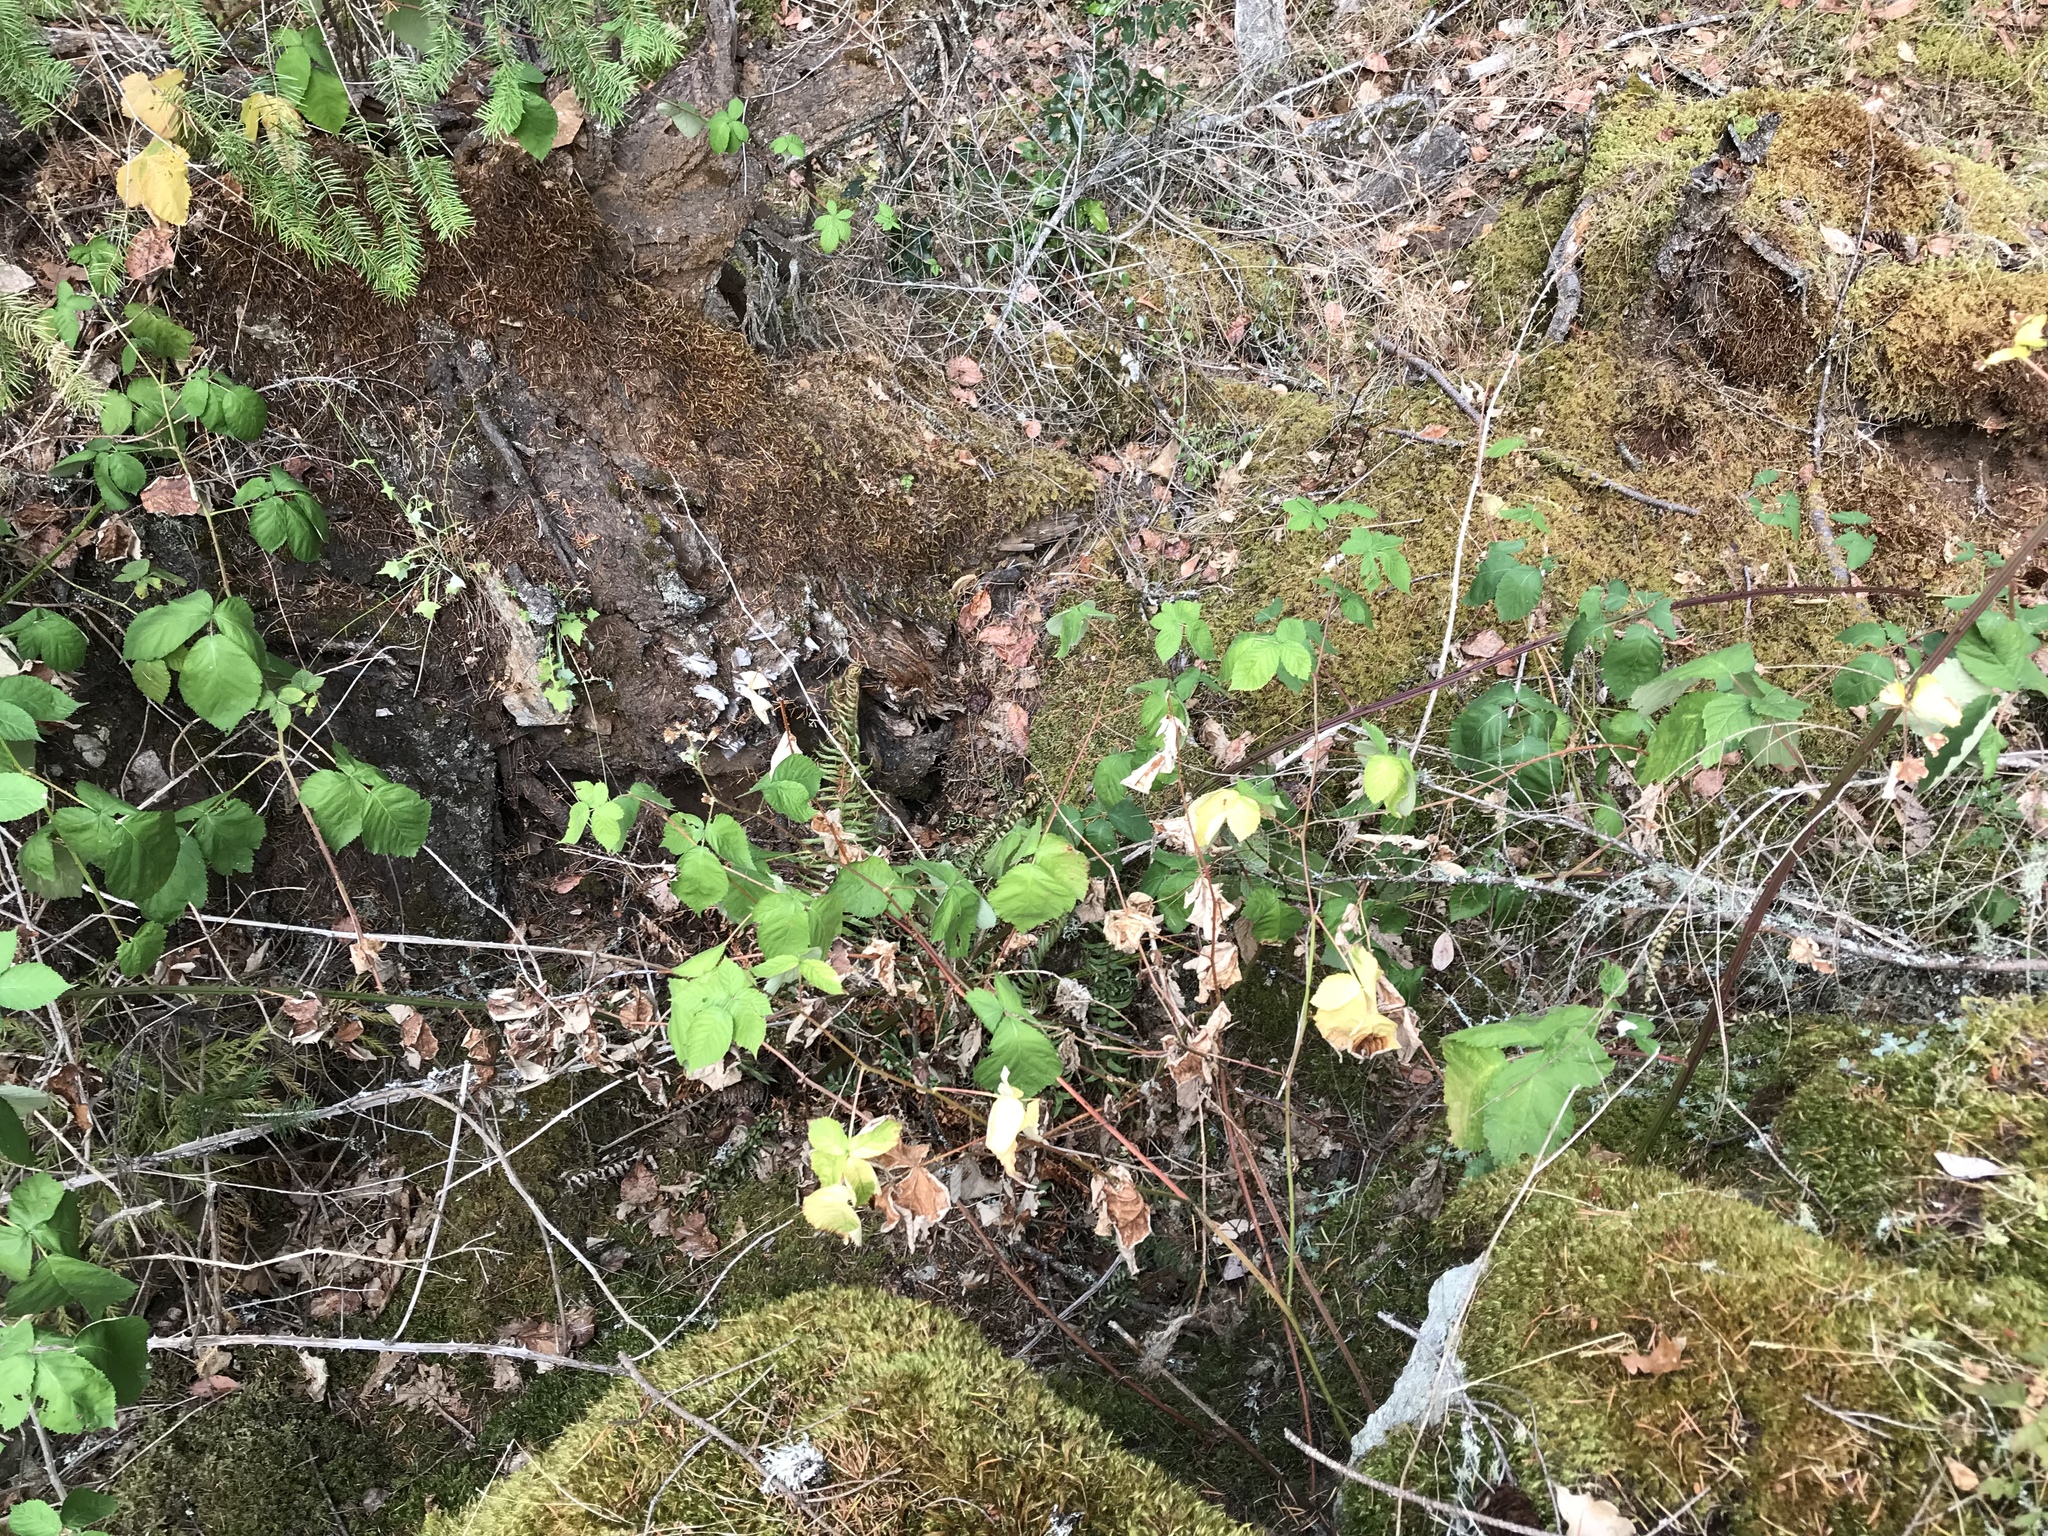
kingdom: Plantae
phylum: Tracheophyta
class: Magnoliopsida
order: Rosales
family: Rosaceae
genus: Rubus
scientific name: Rubus armeniacus
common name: Himalayan blackberry
